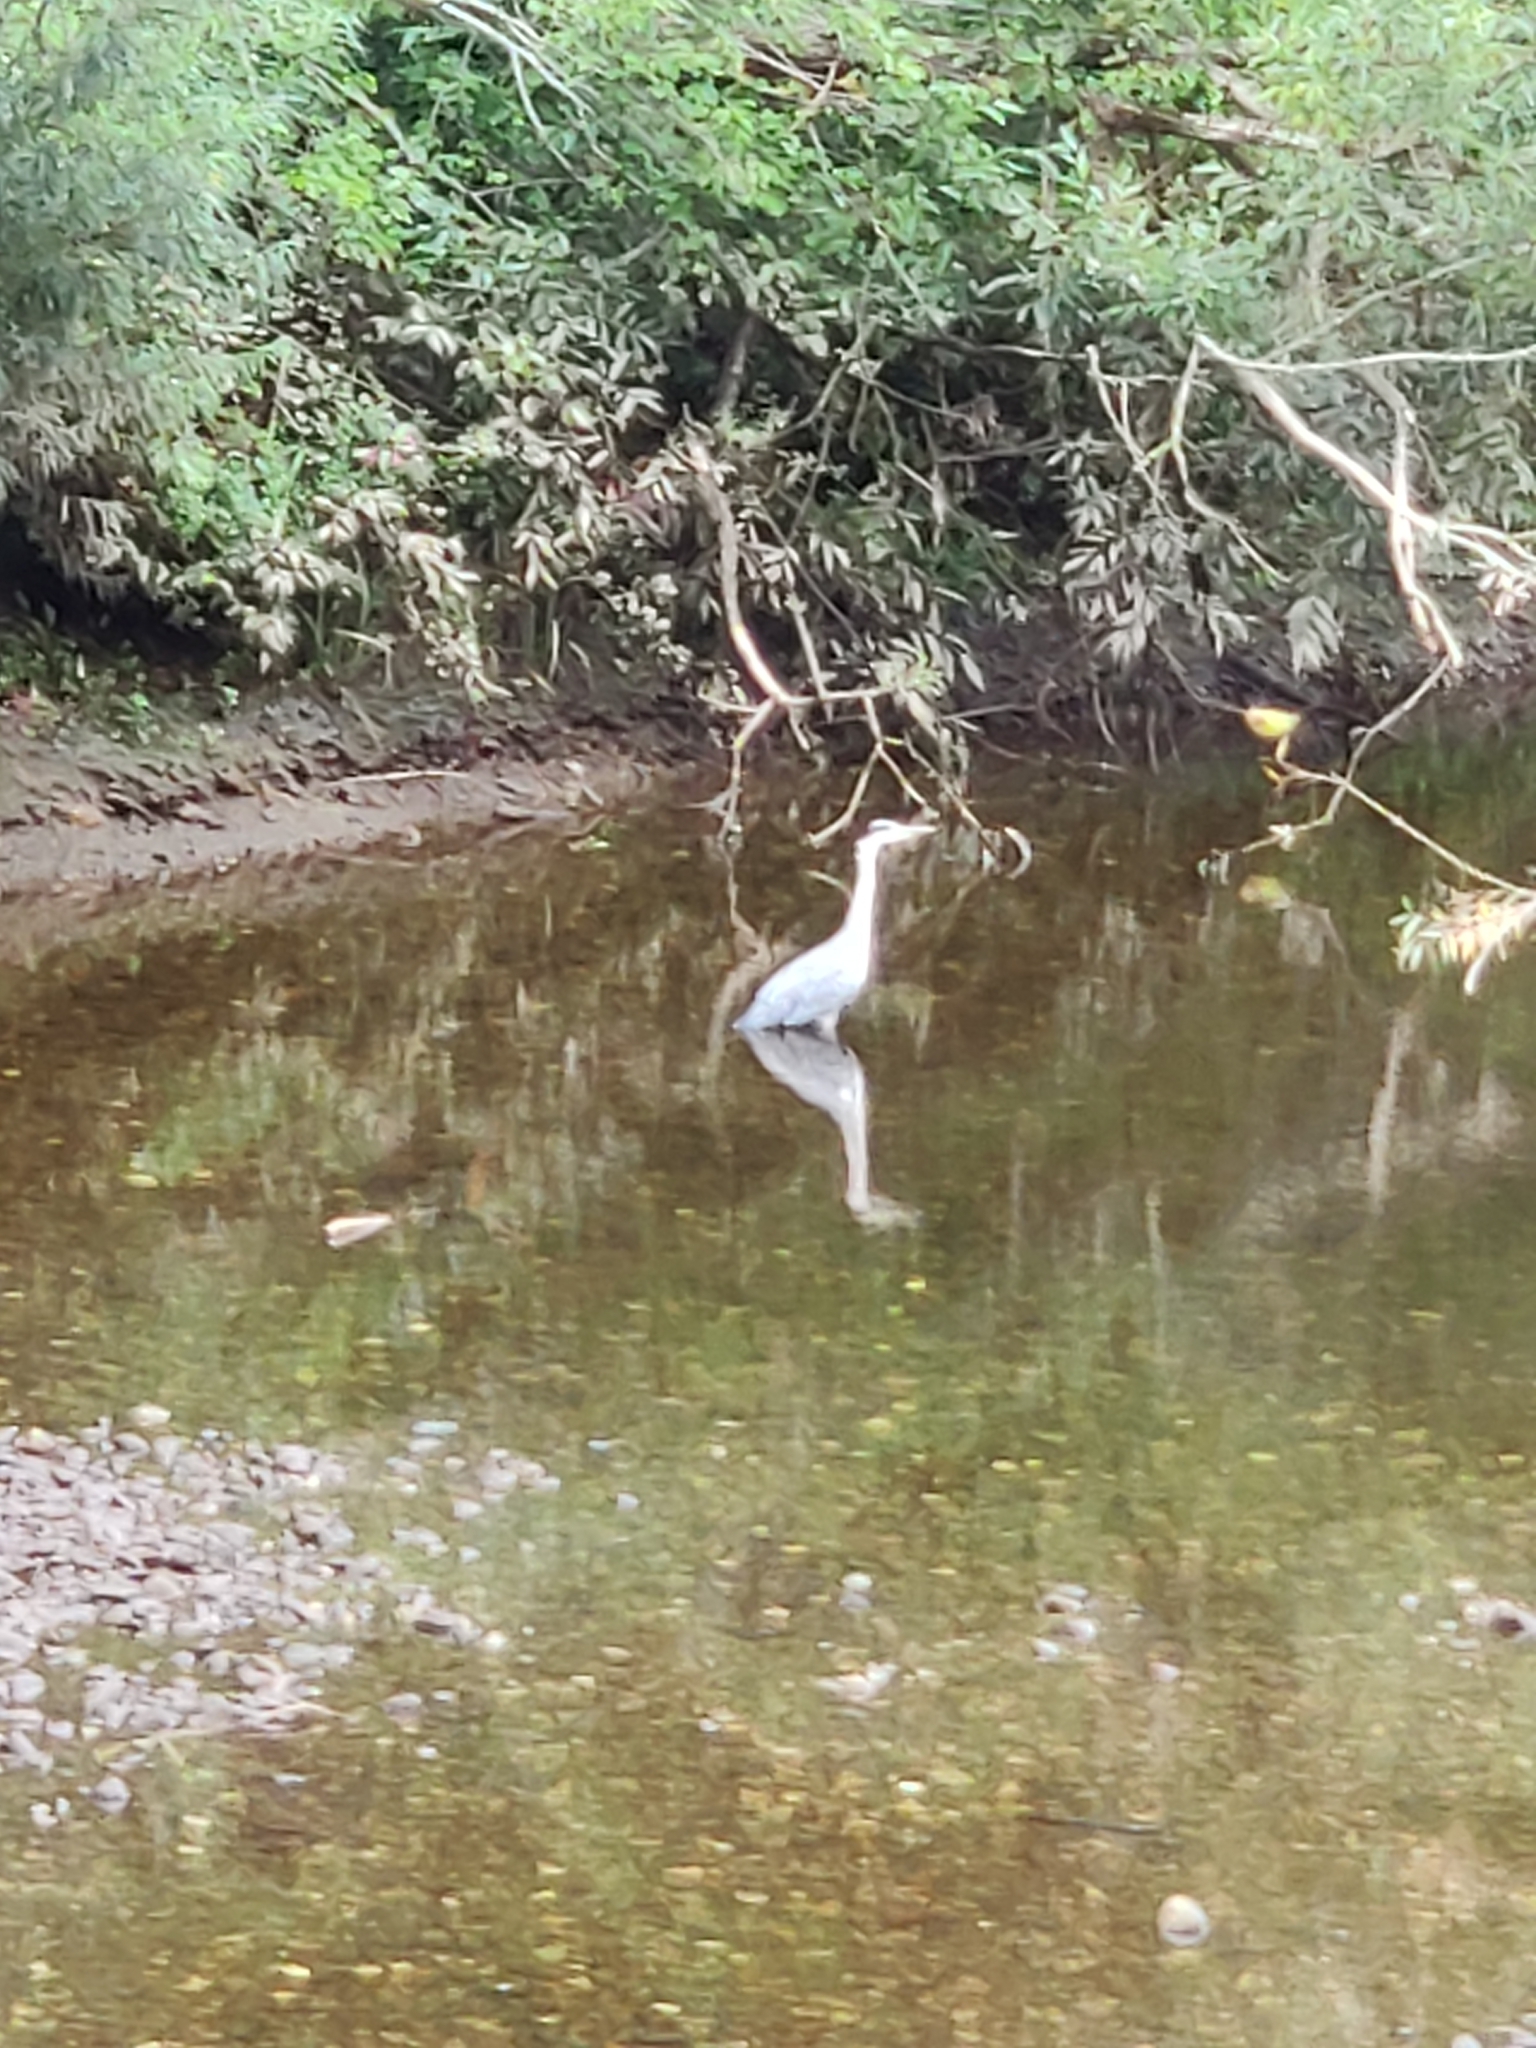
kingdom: Animalia
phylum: Chordata
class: Aves
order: Pelecaniformes
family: Ardeidae
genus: Ardea
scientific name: Ardea cinerea
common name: Grey heron
